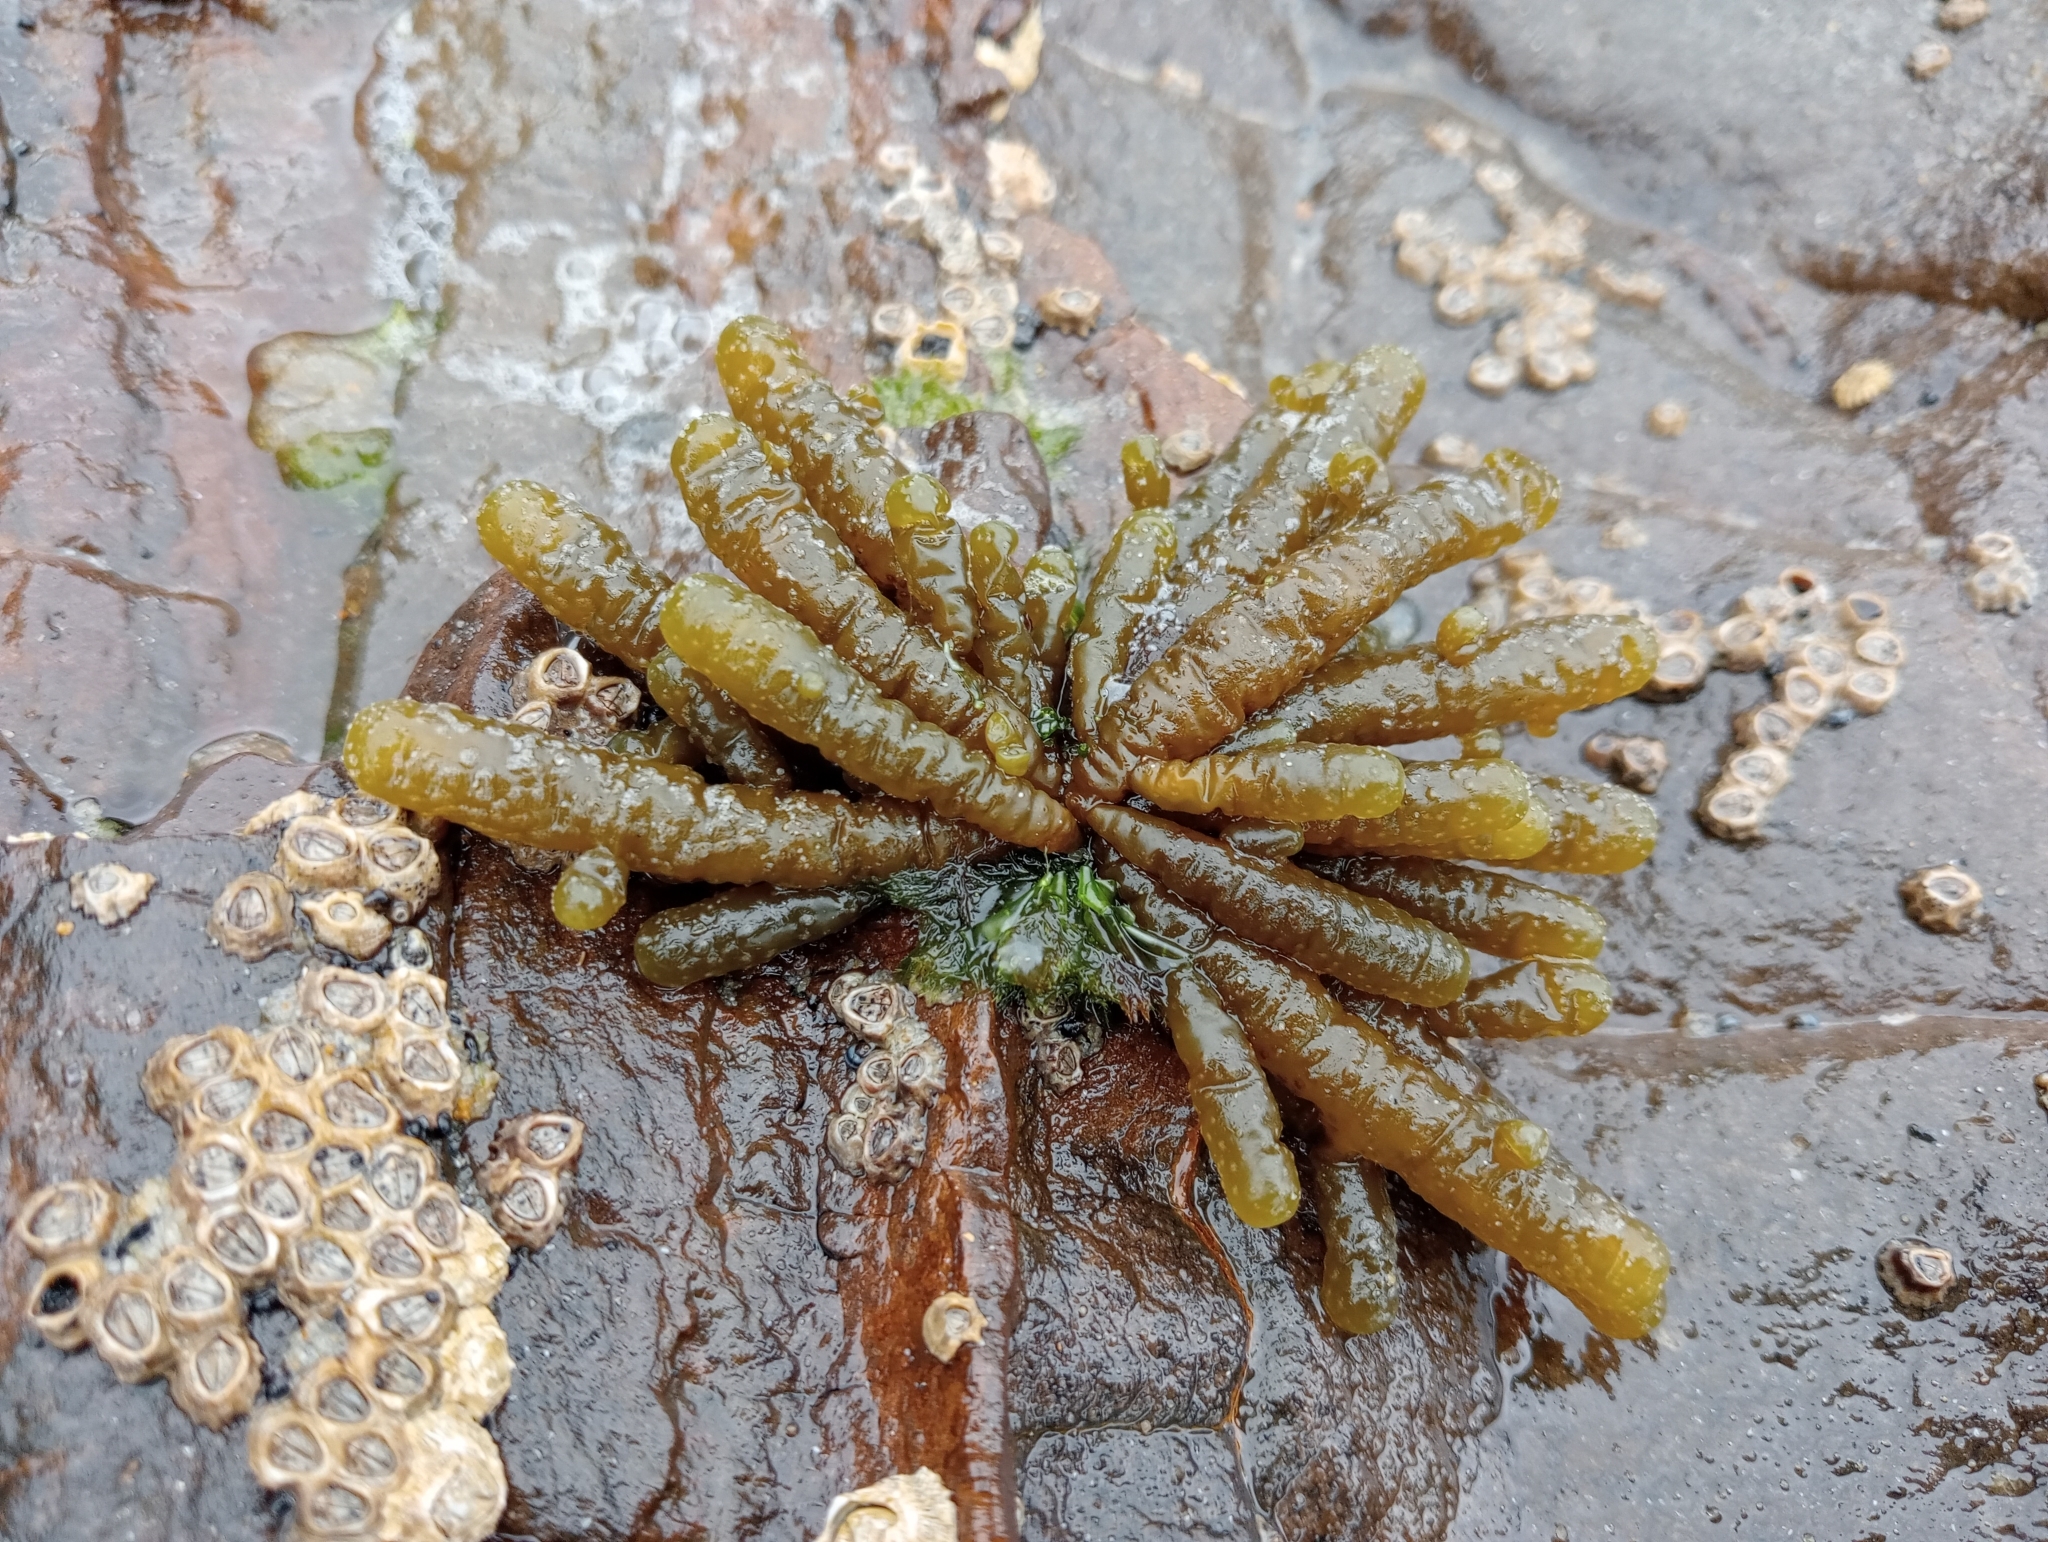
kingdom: Chromista
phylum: Ochrophyta
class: Phaeophyceae
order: Scytothamnales
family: Splachnidiaceae
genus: Splachnidium
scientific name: Splachnidium rugosum
